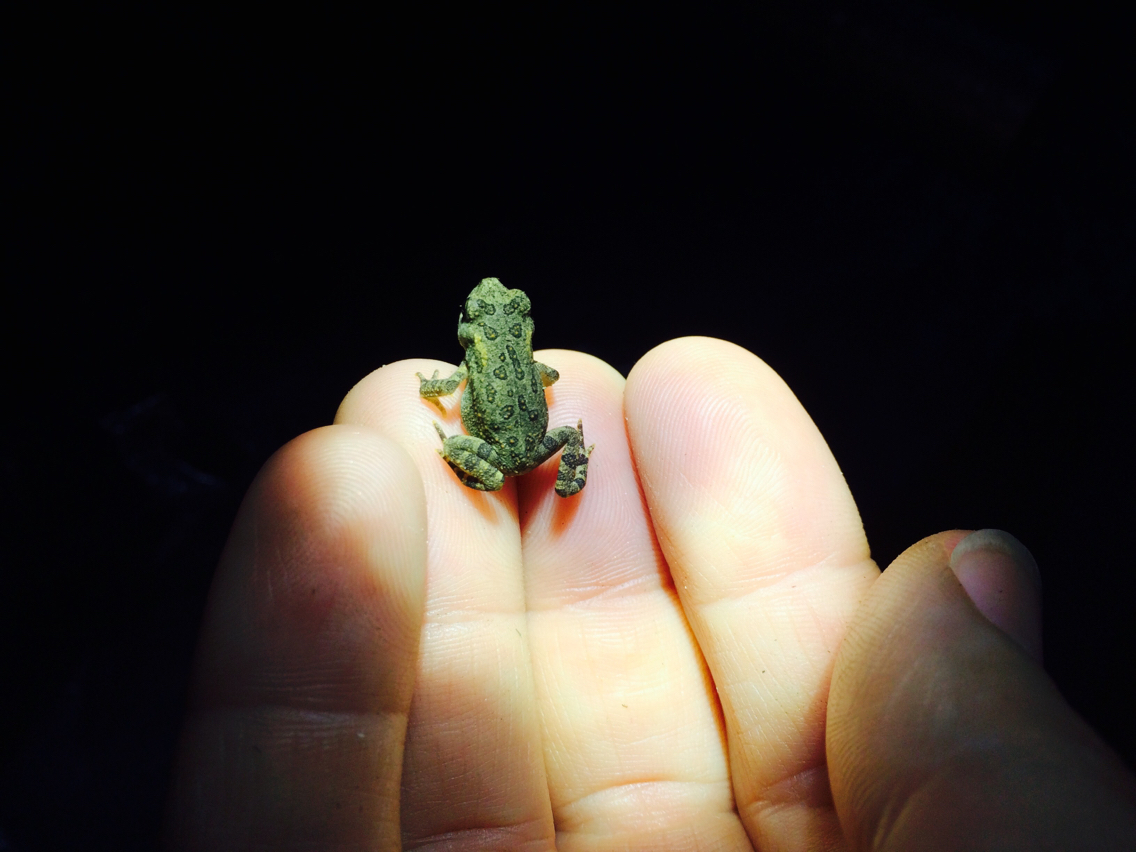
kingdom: Animalia
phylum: Chordata
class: Amphibia
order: Anura
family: Bufonidae
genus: Anaxyrus
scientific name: Anaxyrus americanus
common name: American toad
